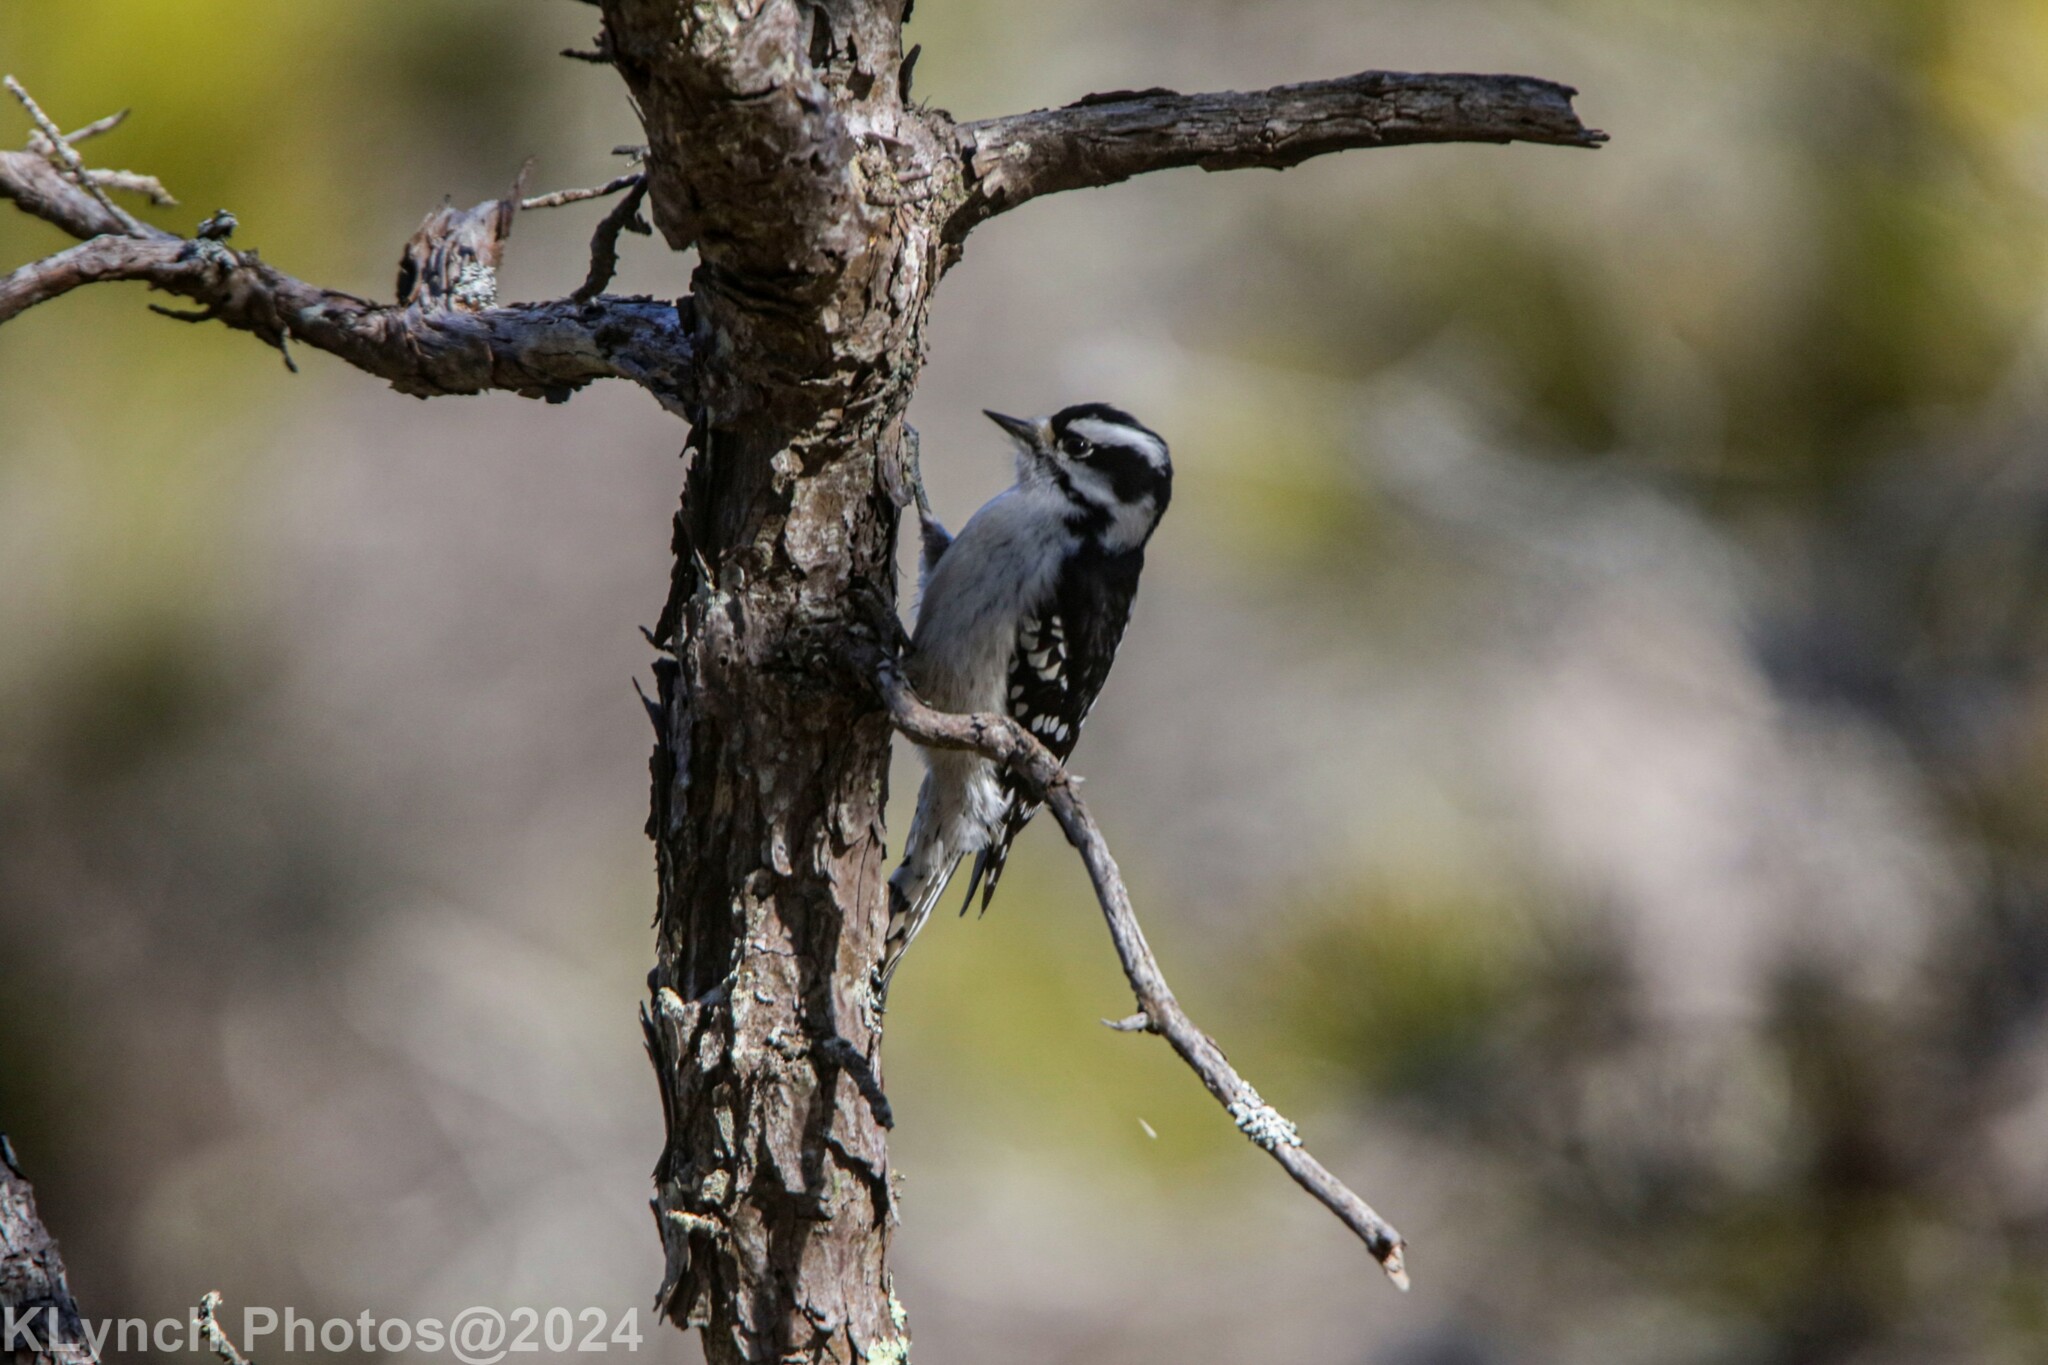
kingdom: Animalia
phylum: Chordata
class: Aves
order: Piciformes
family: Picidae
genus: Dryobates
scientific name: Dryobates pubescens
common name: Downy woodpecker
